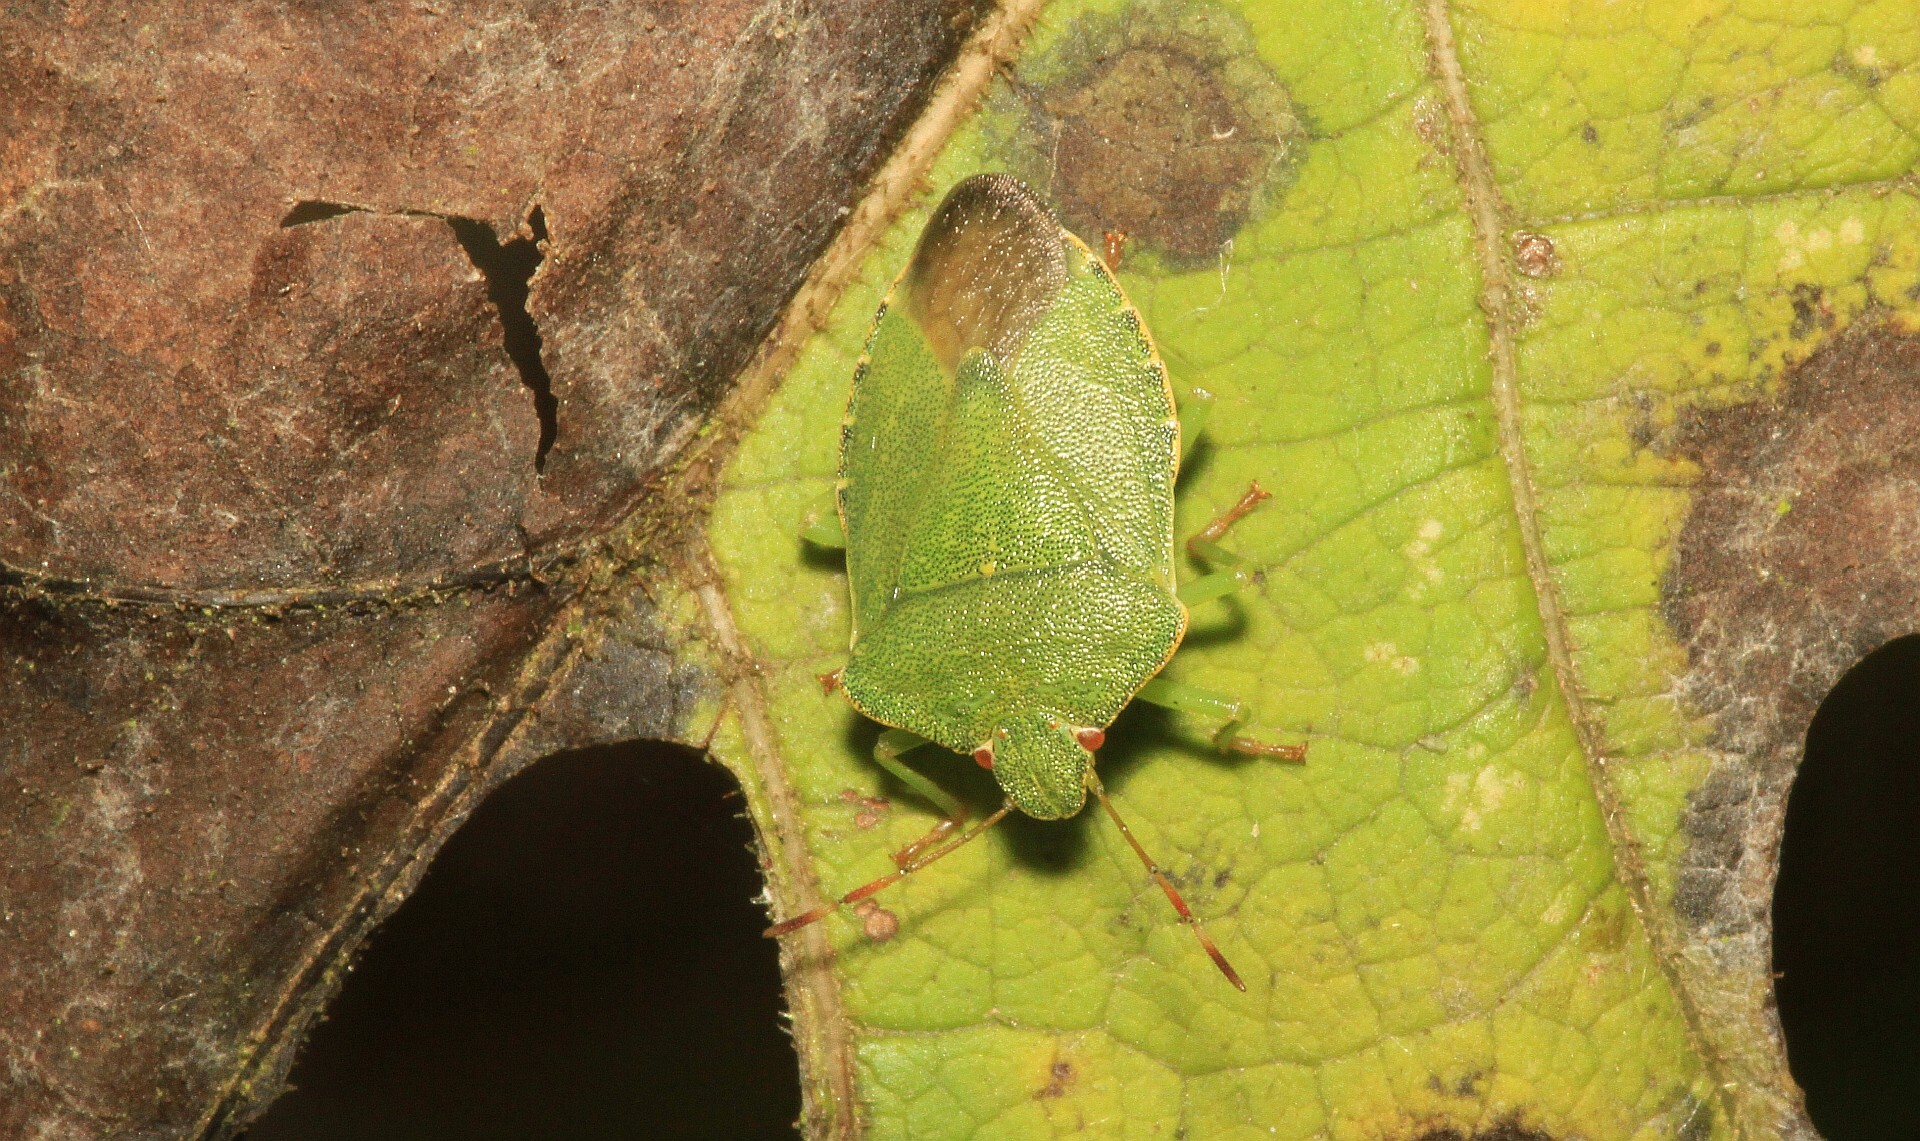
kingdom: Animalia
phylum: Arthropoda
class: Insecta
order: Hemiptera
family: Pentatomidae
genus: Palomena
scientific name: Palomena prasina
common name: Green shieldbug
